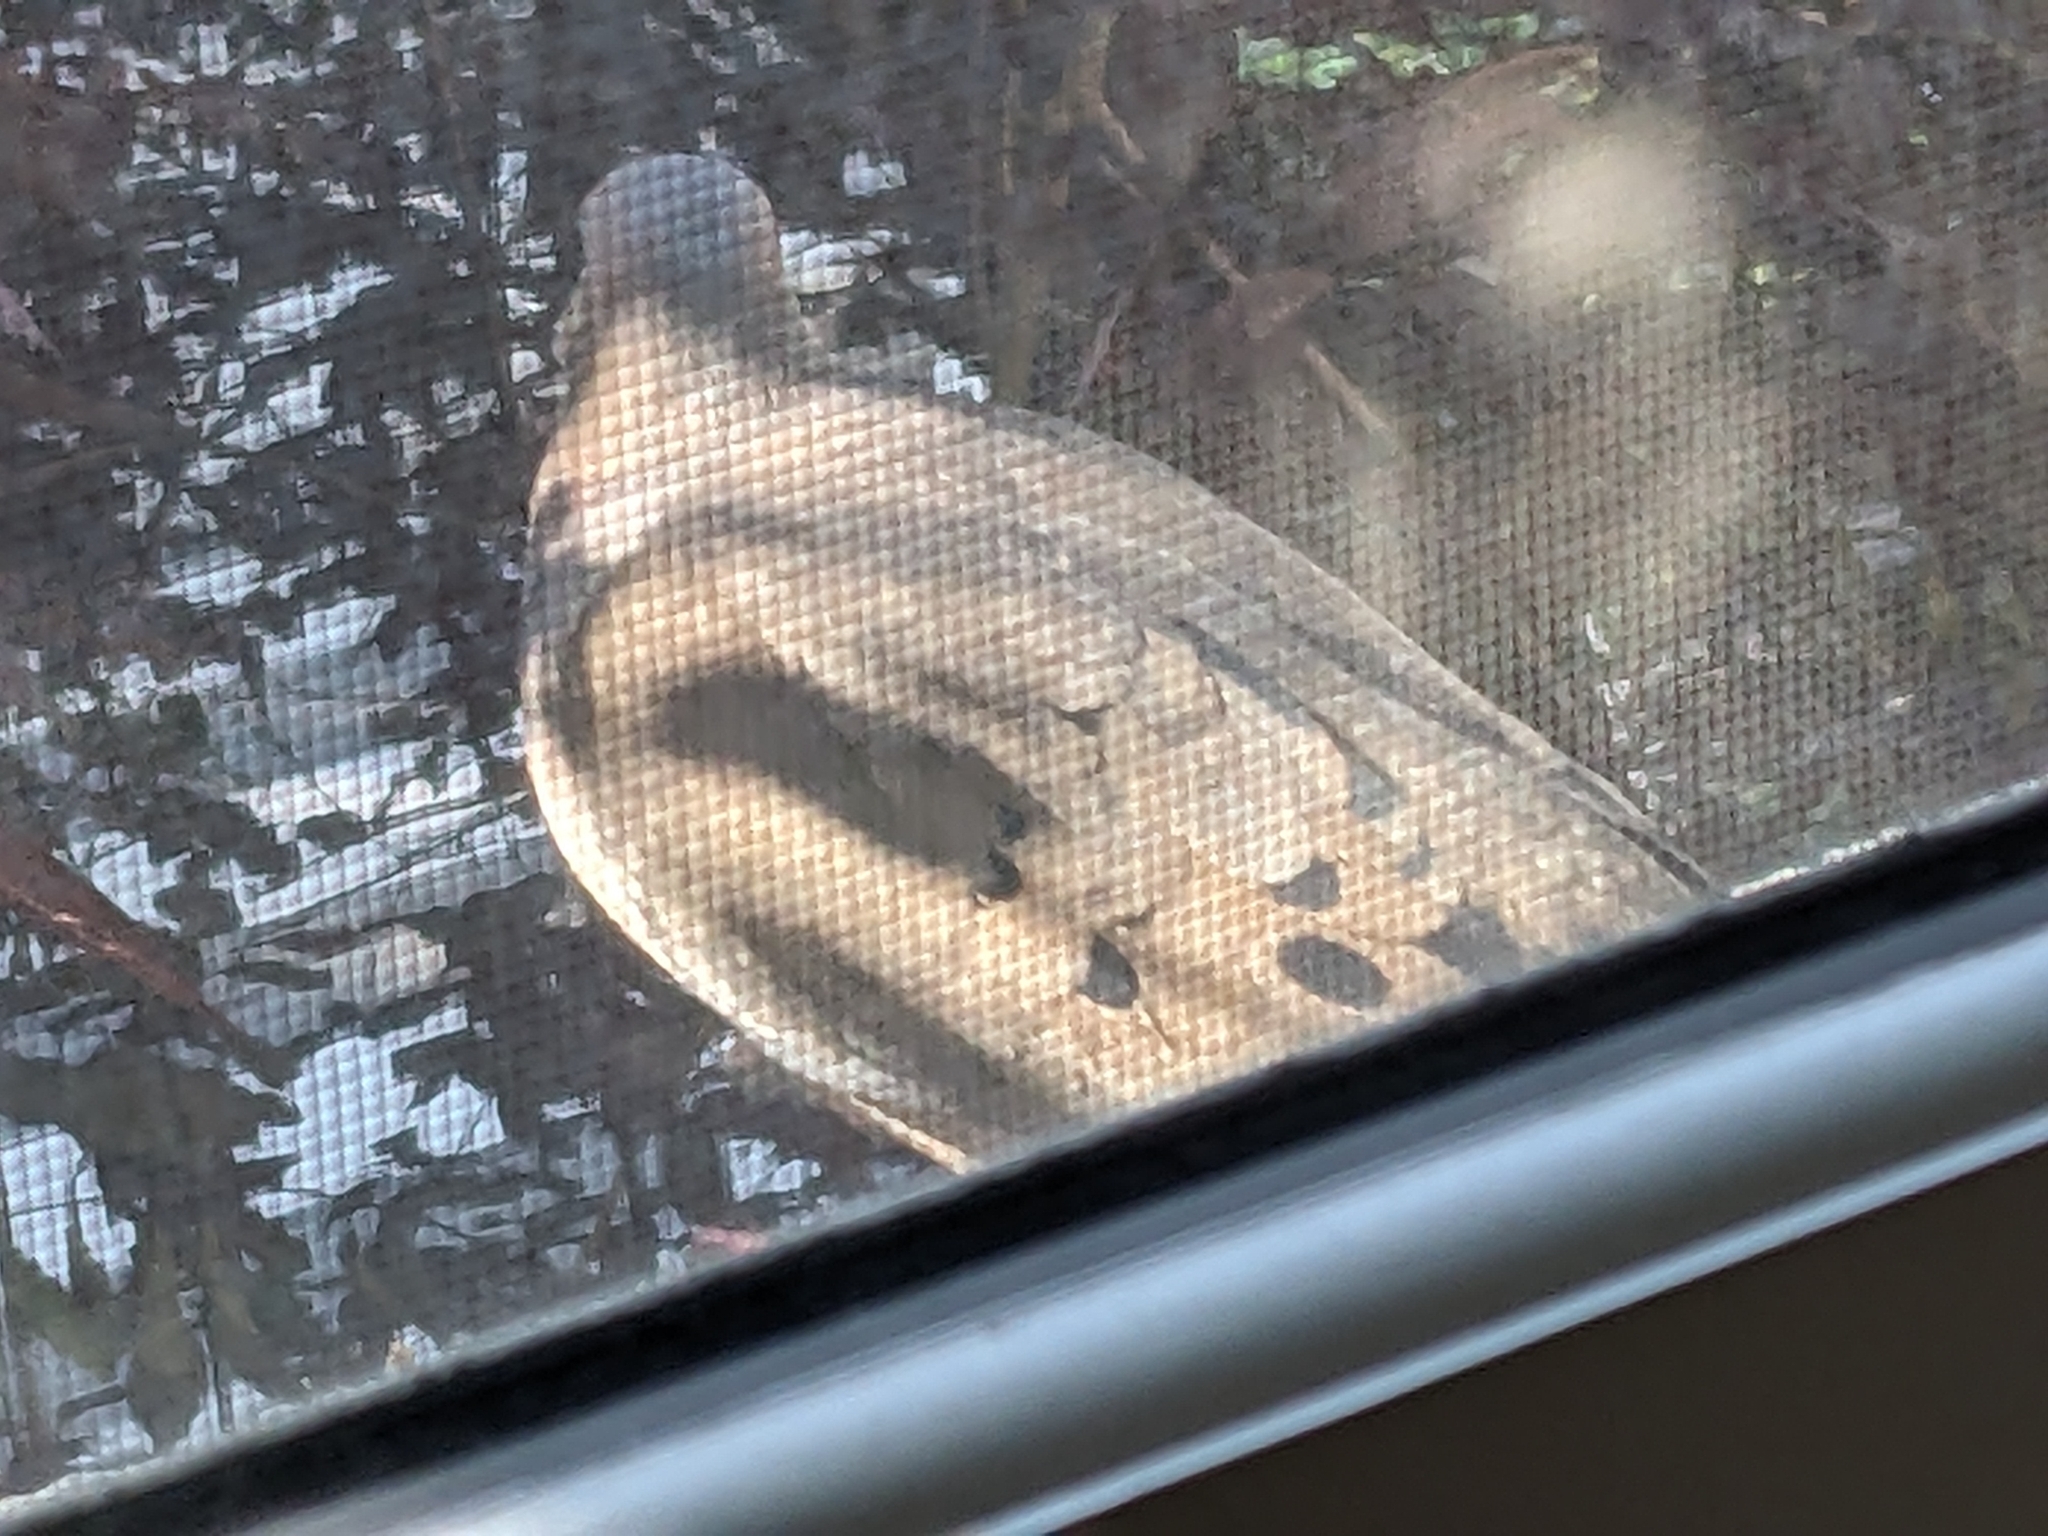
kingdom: Animalia
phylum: Chordata
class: Aves
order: Columbiformes
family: Columbidae
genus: Zenaida
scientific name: Zenaida macroura
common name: Mourning dove
